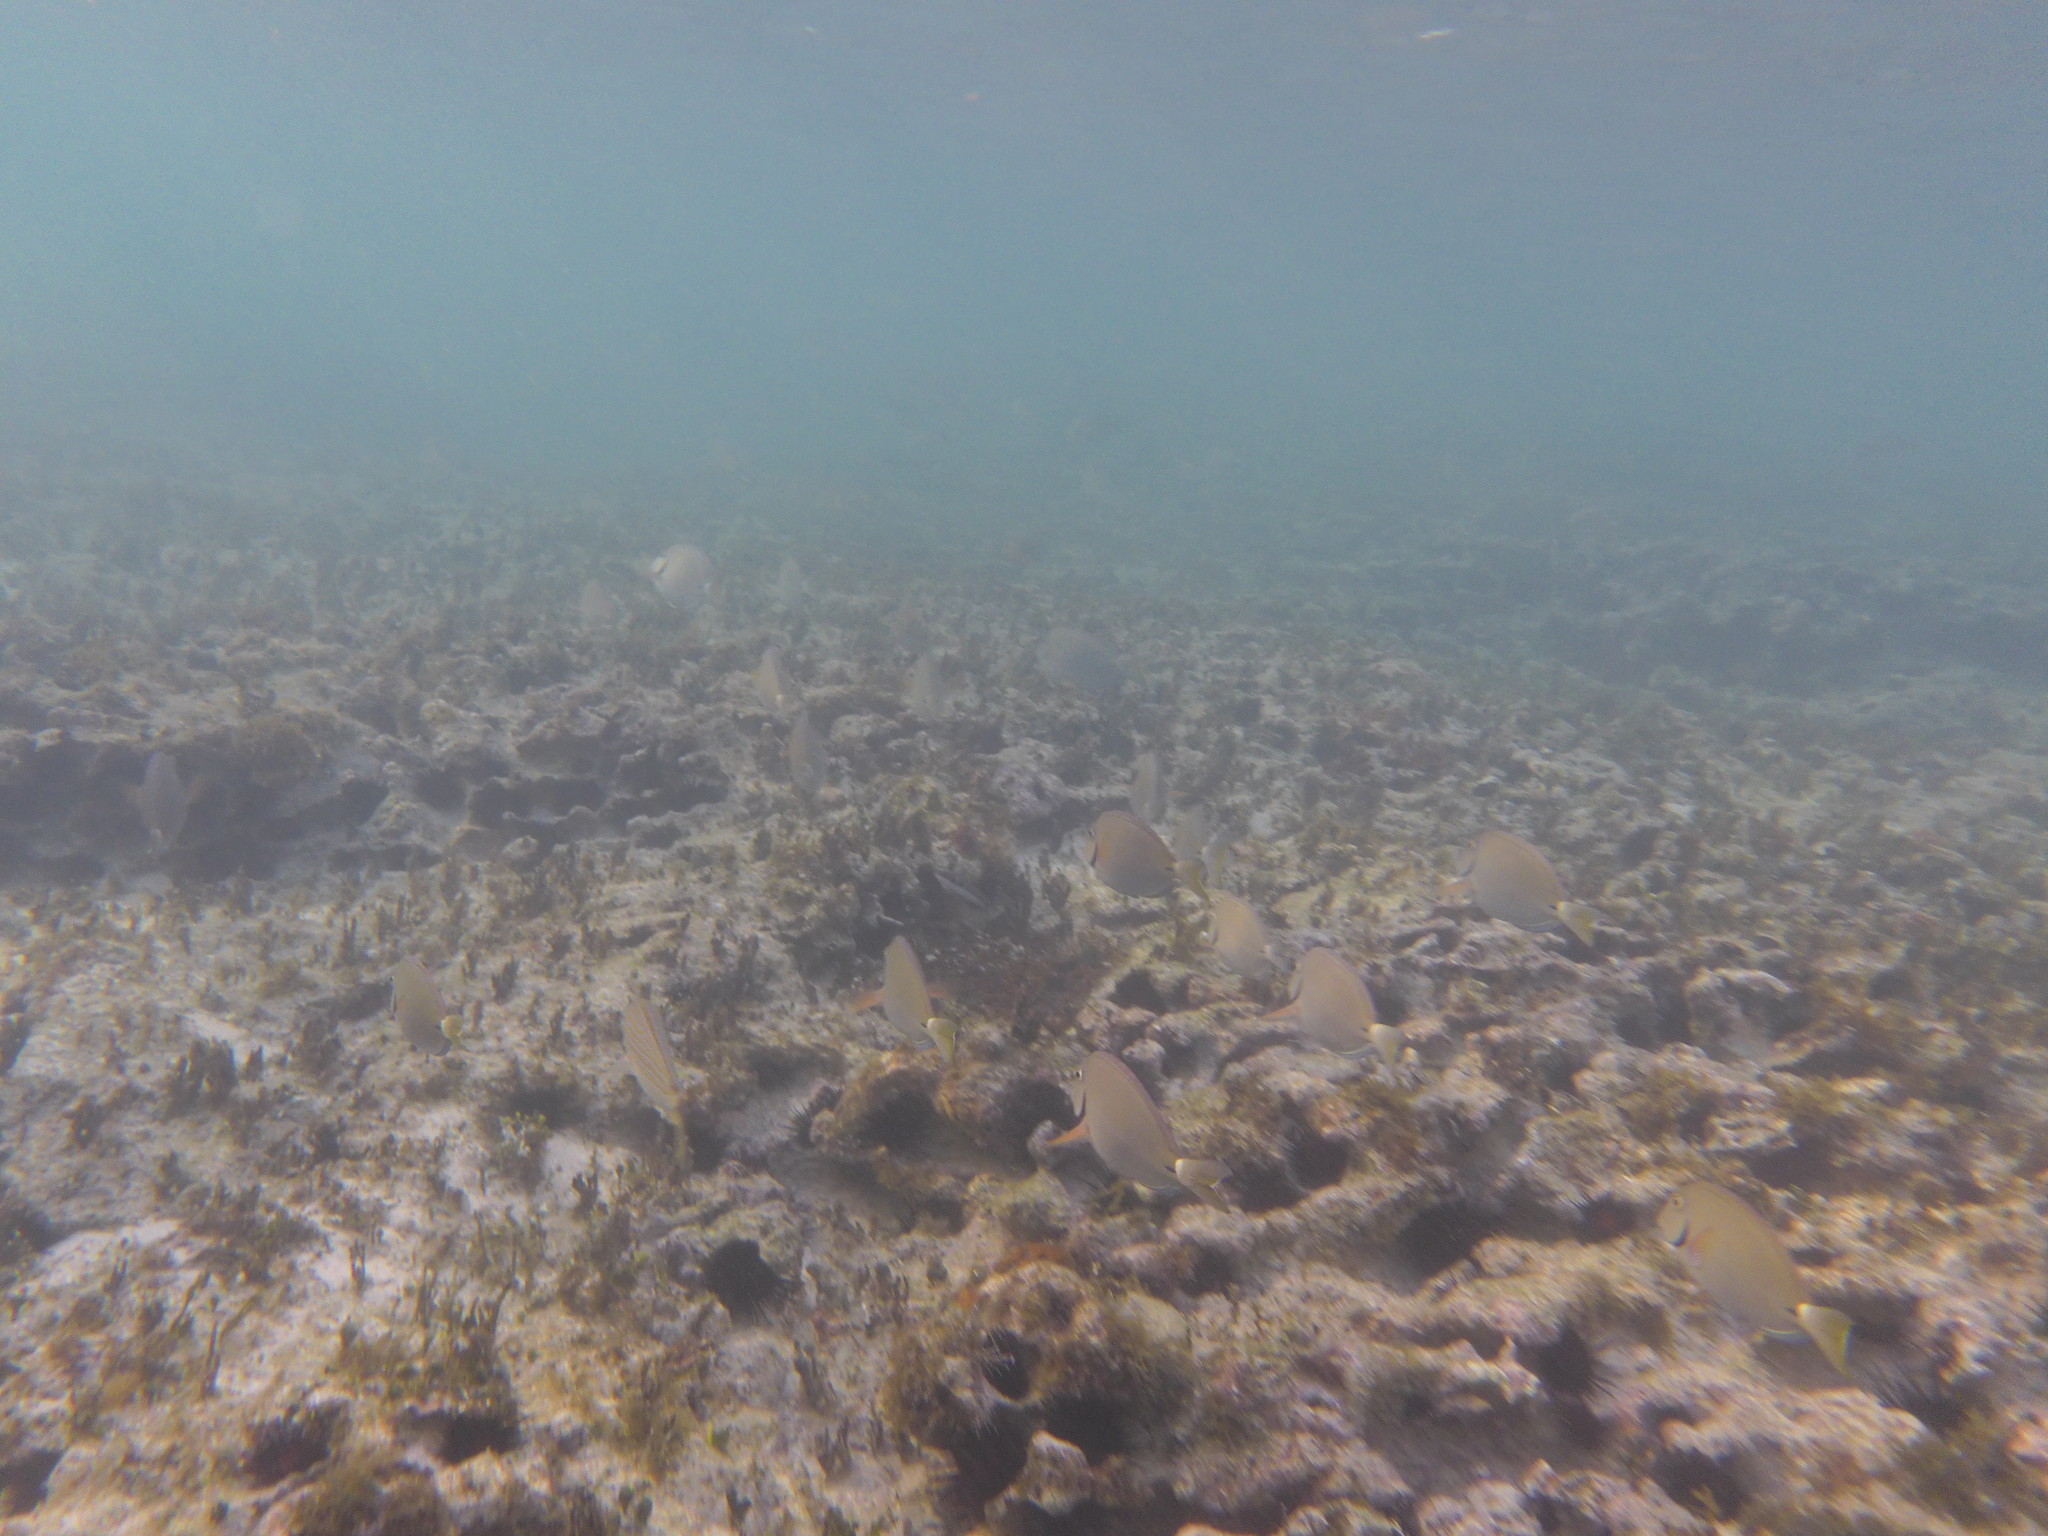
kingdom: Animalia
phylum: Chordata
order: Perciformes
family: Acanthuridae
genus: Acanthurus
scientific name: Acanthurus bahianus
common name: Ocean surgeon
